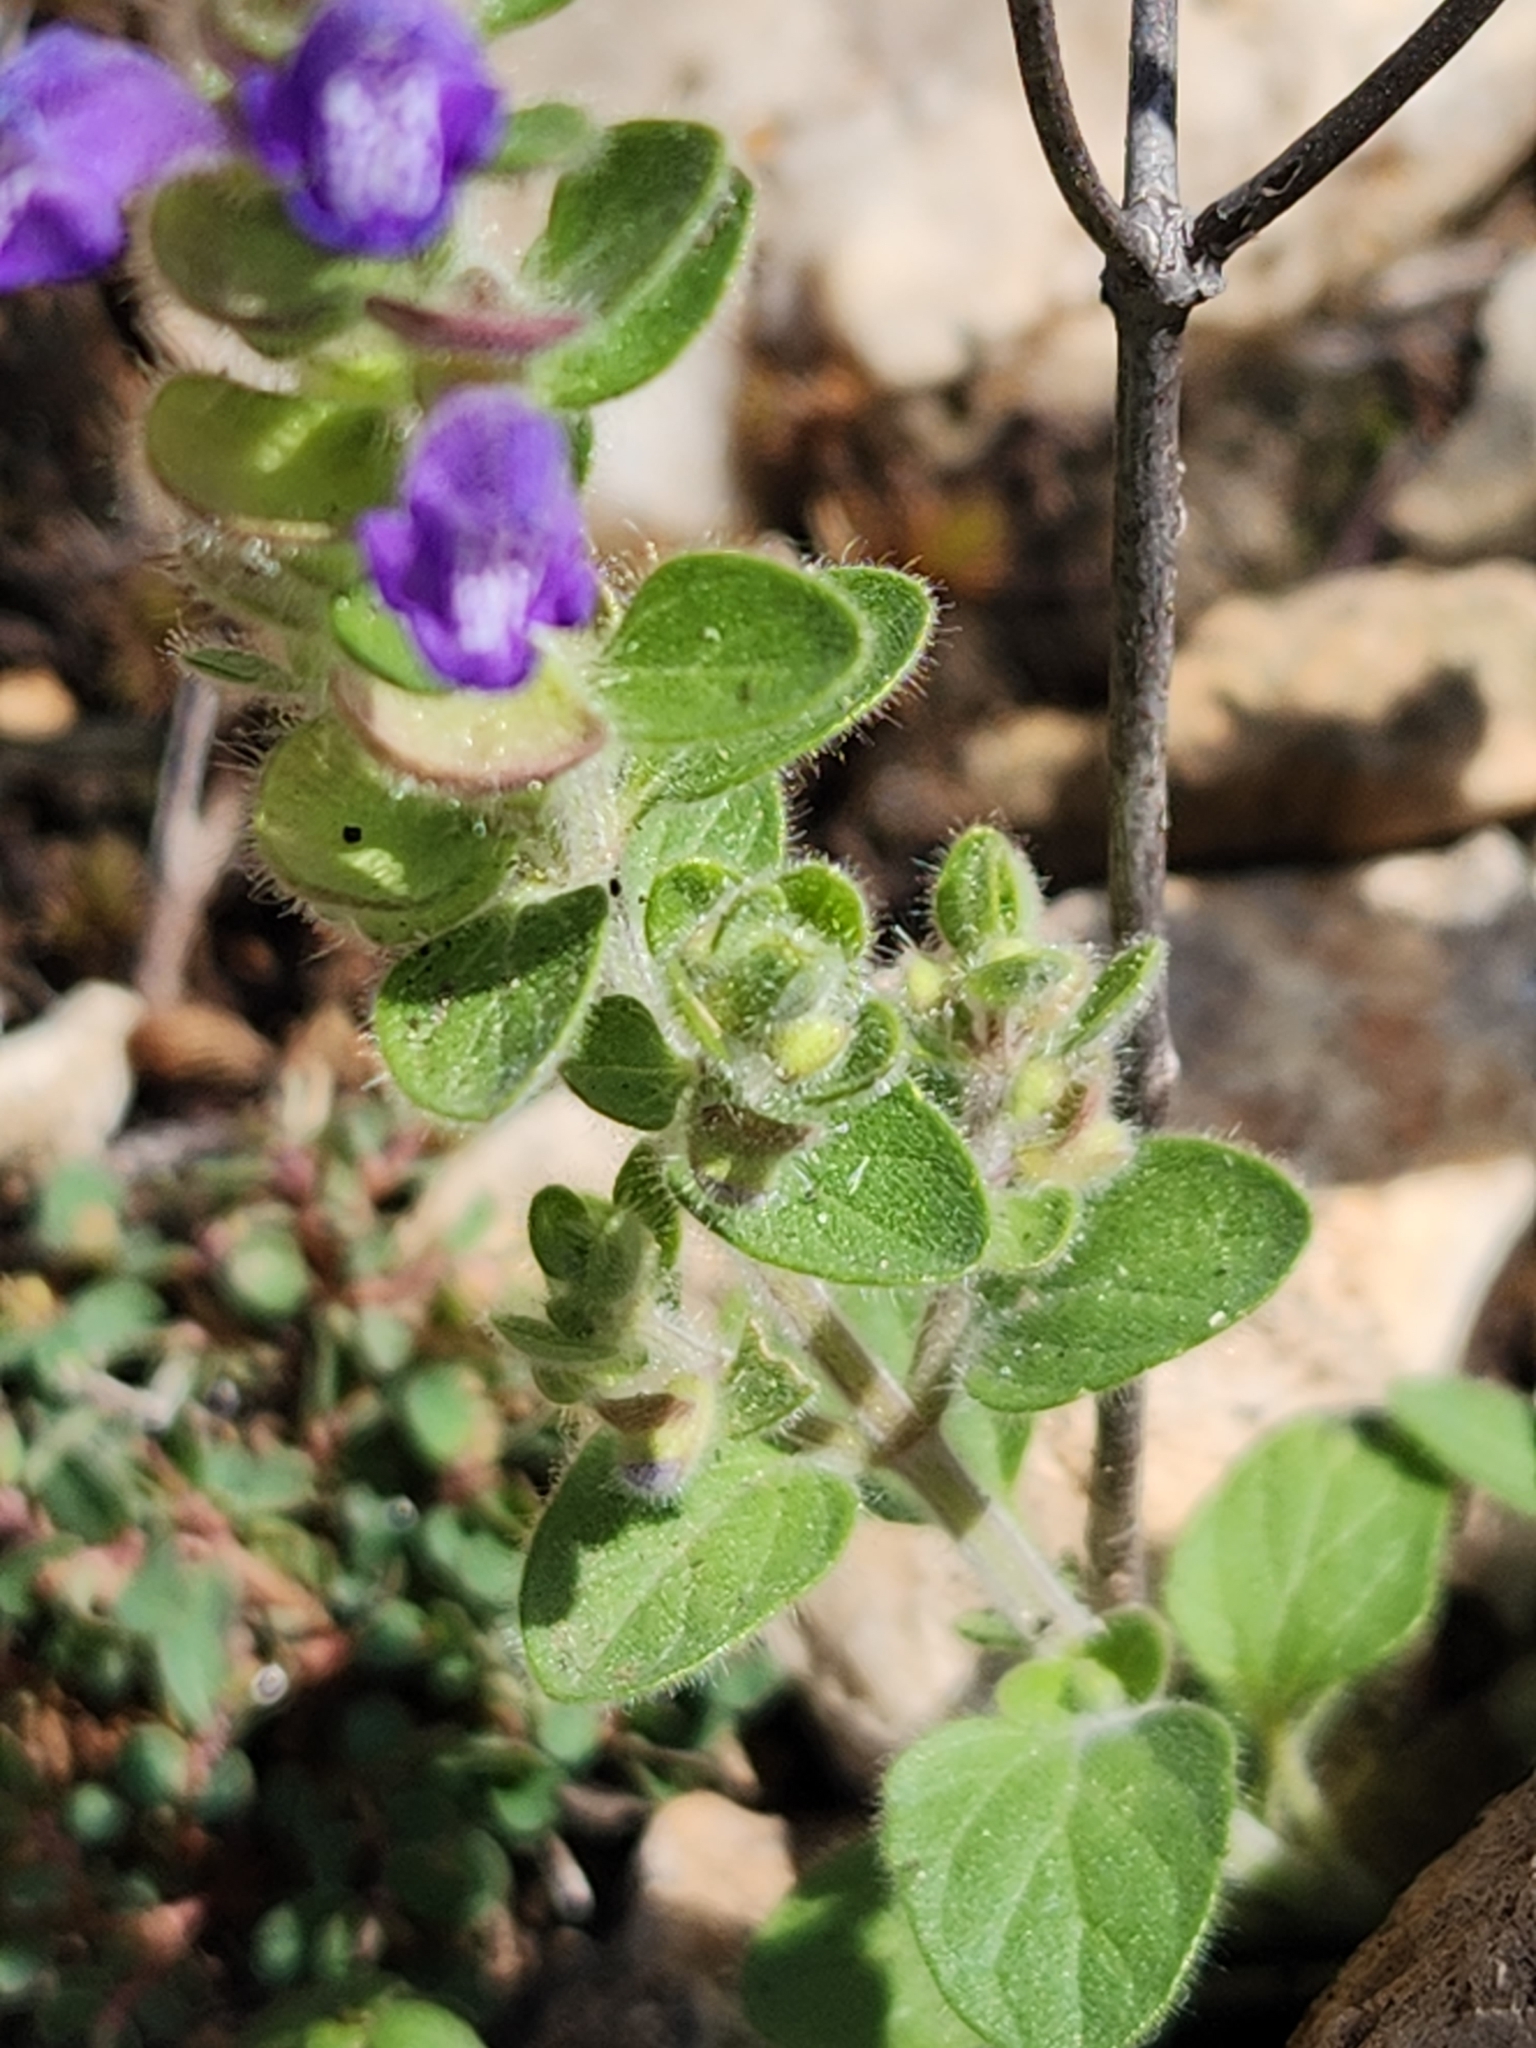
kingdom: Plantae
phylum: Tracheophyta
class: Magnoliopsida
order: Lamiales
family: Lamiaceae
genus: Scutellaria
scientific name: Scutellaria drummondii
